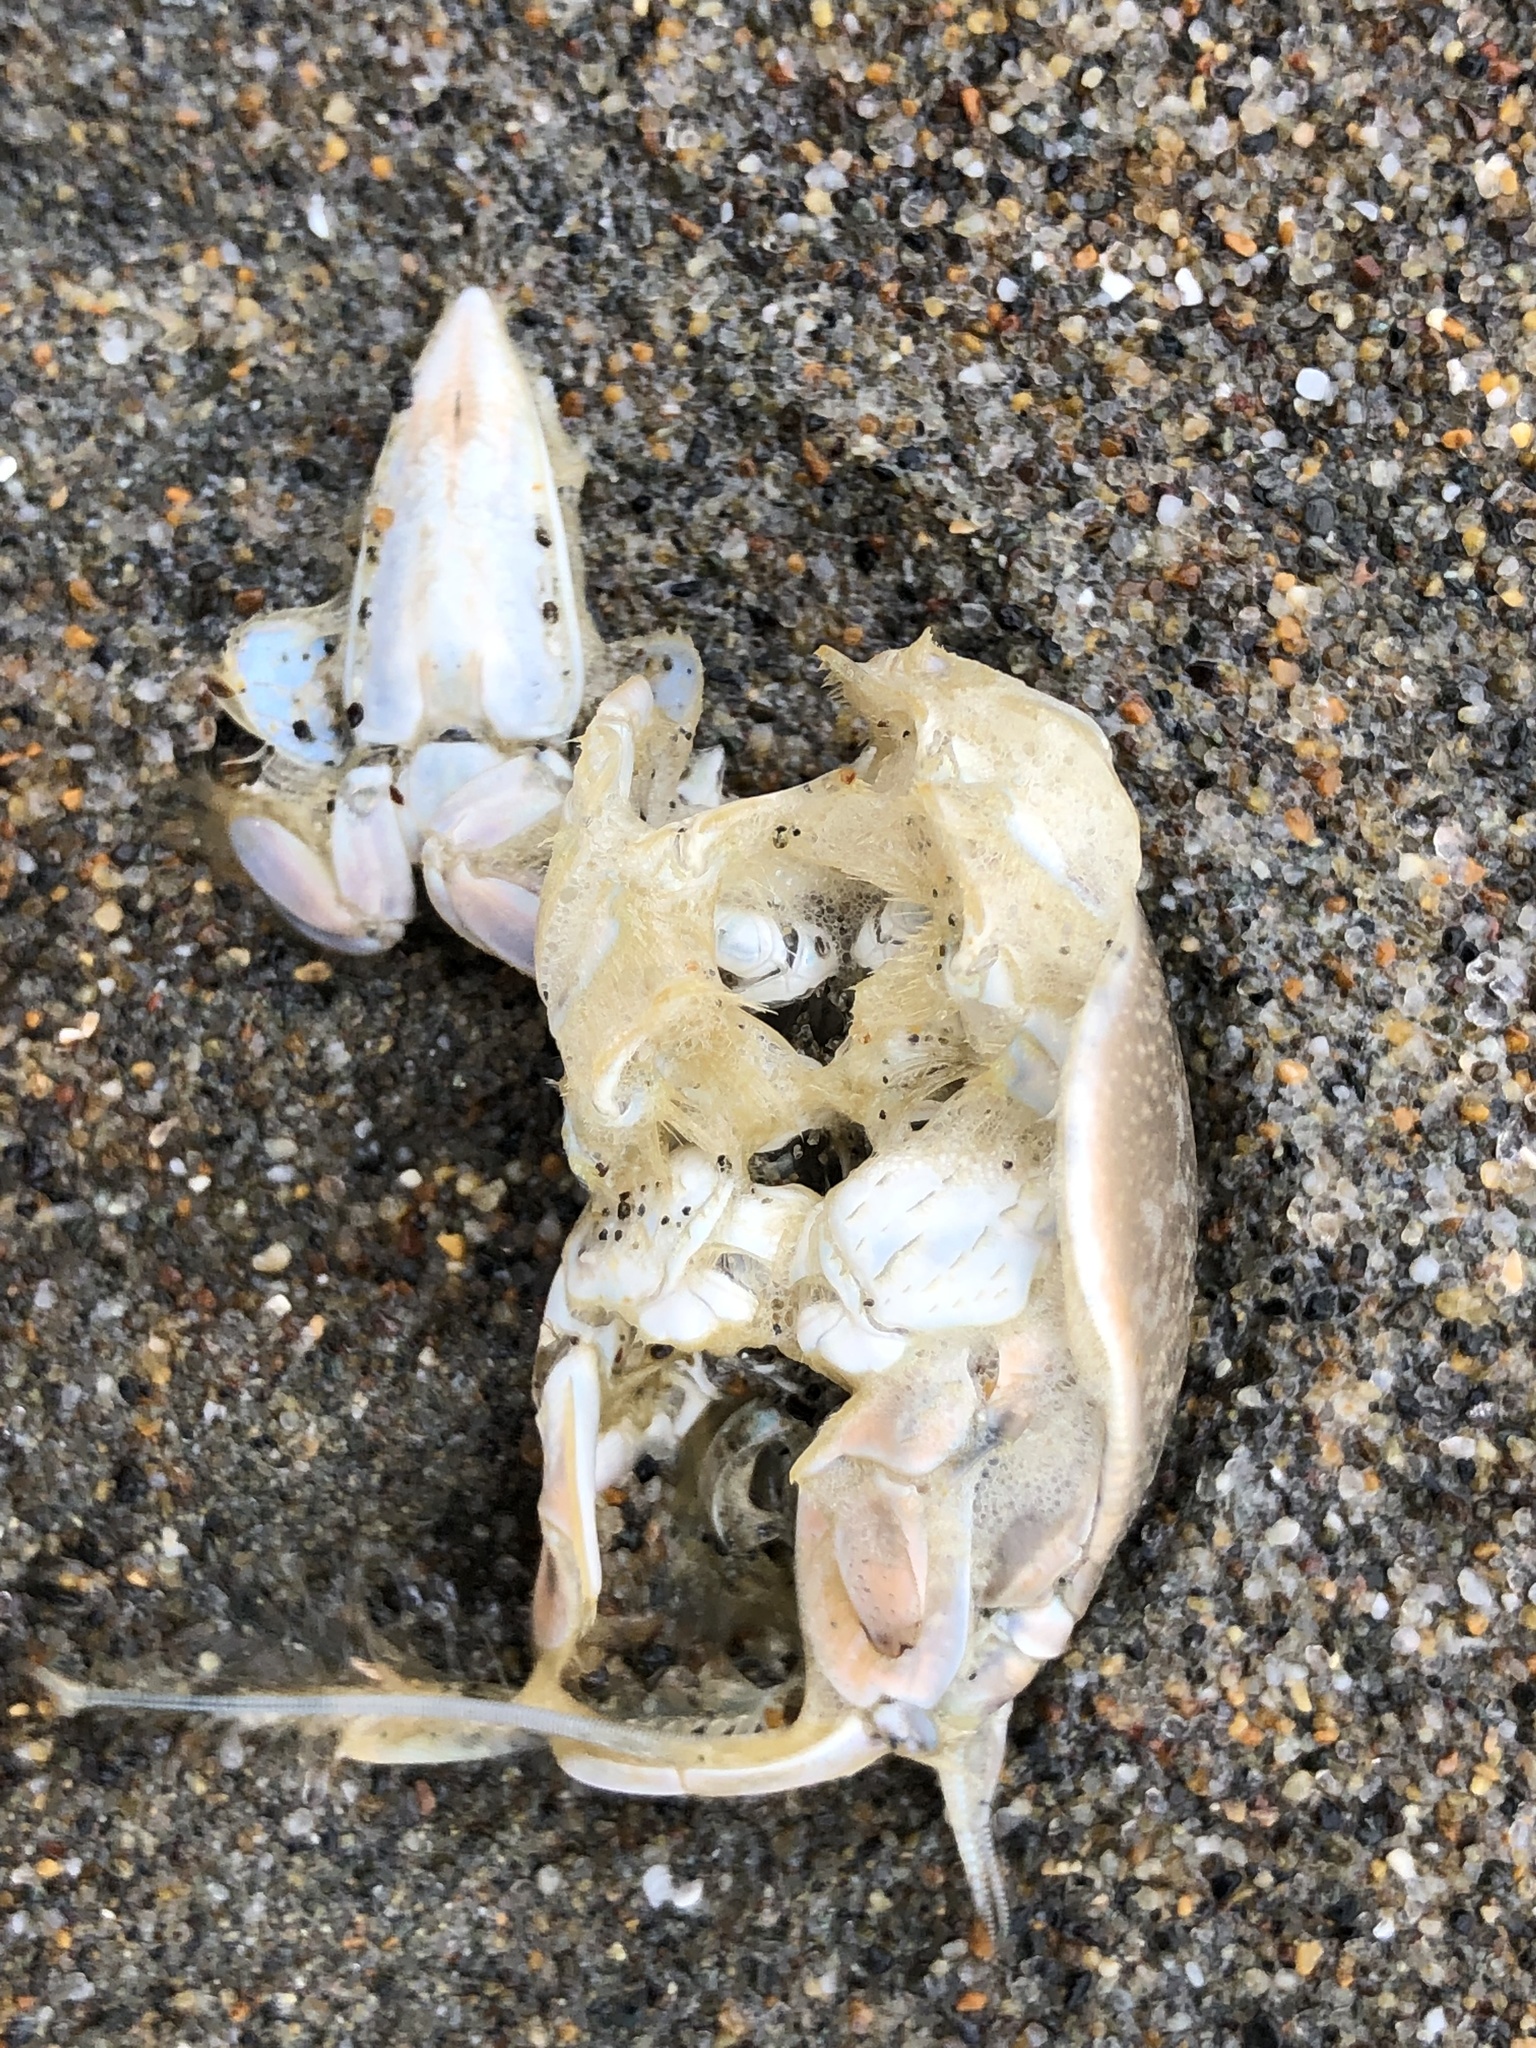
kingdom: Animalia
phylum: Arthropoda
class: Malacostraca
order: Decapoda
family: Hippidae
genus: Emerita
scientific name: Emerita analoga
